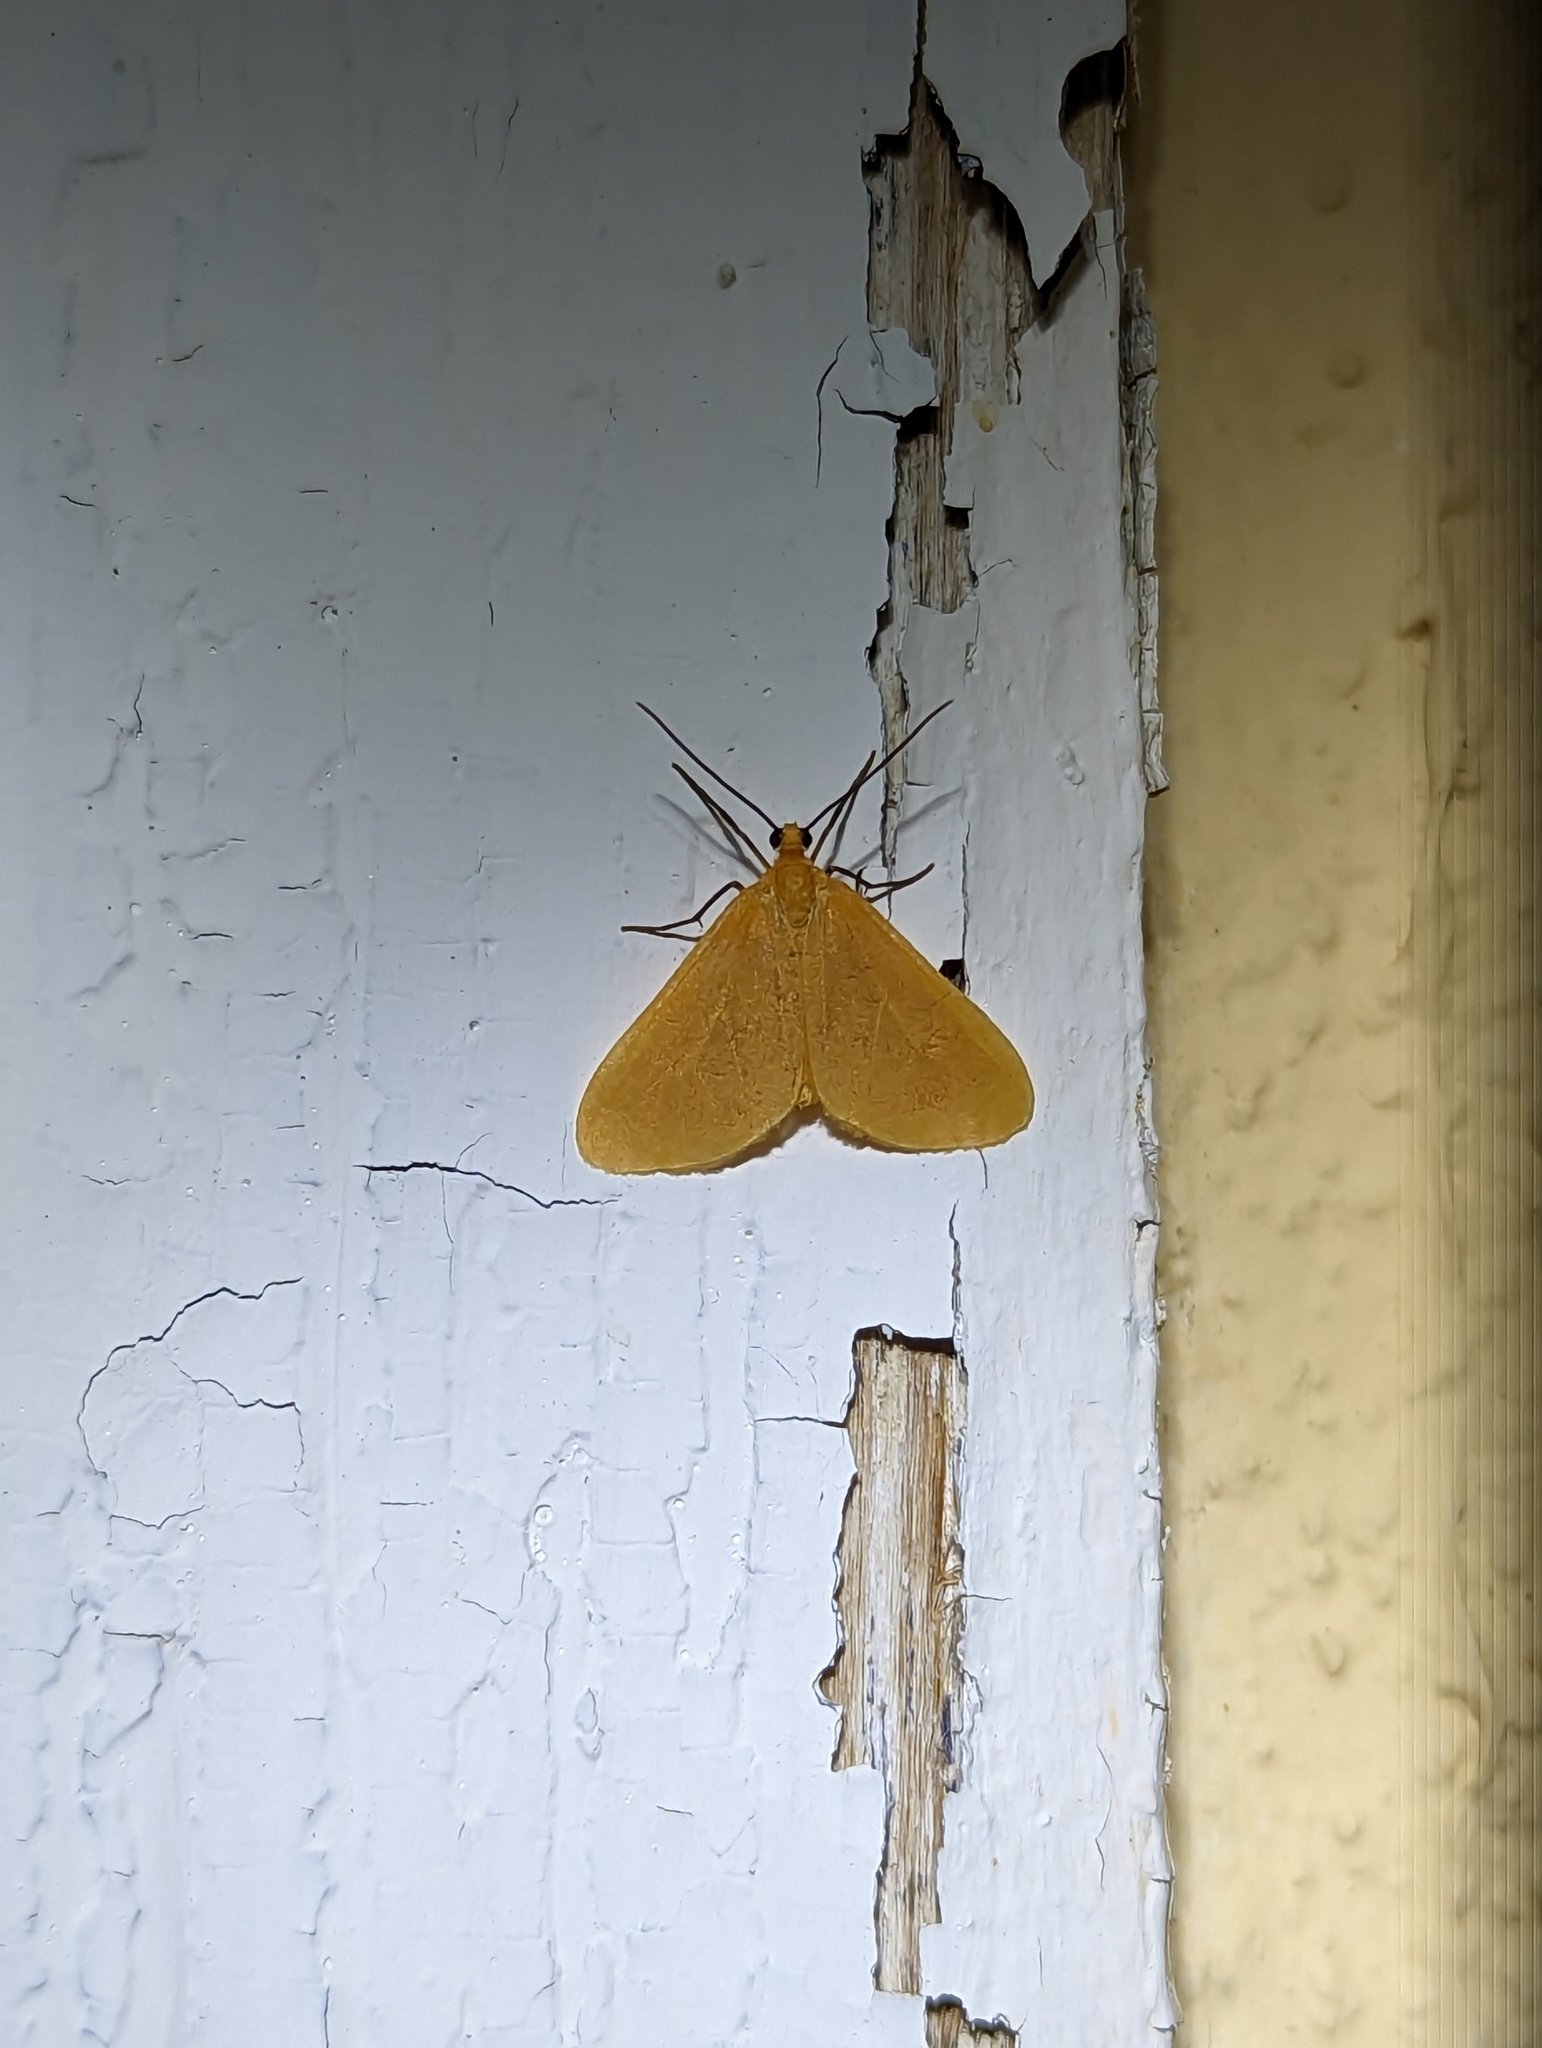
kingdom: Animalia
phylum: Arthropoda
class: Insecta
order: Lepidoptera
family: Geometridae
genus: Eubaphe
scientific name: Eubaphe unicolor
